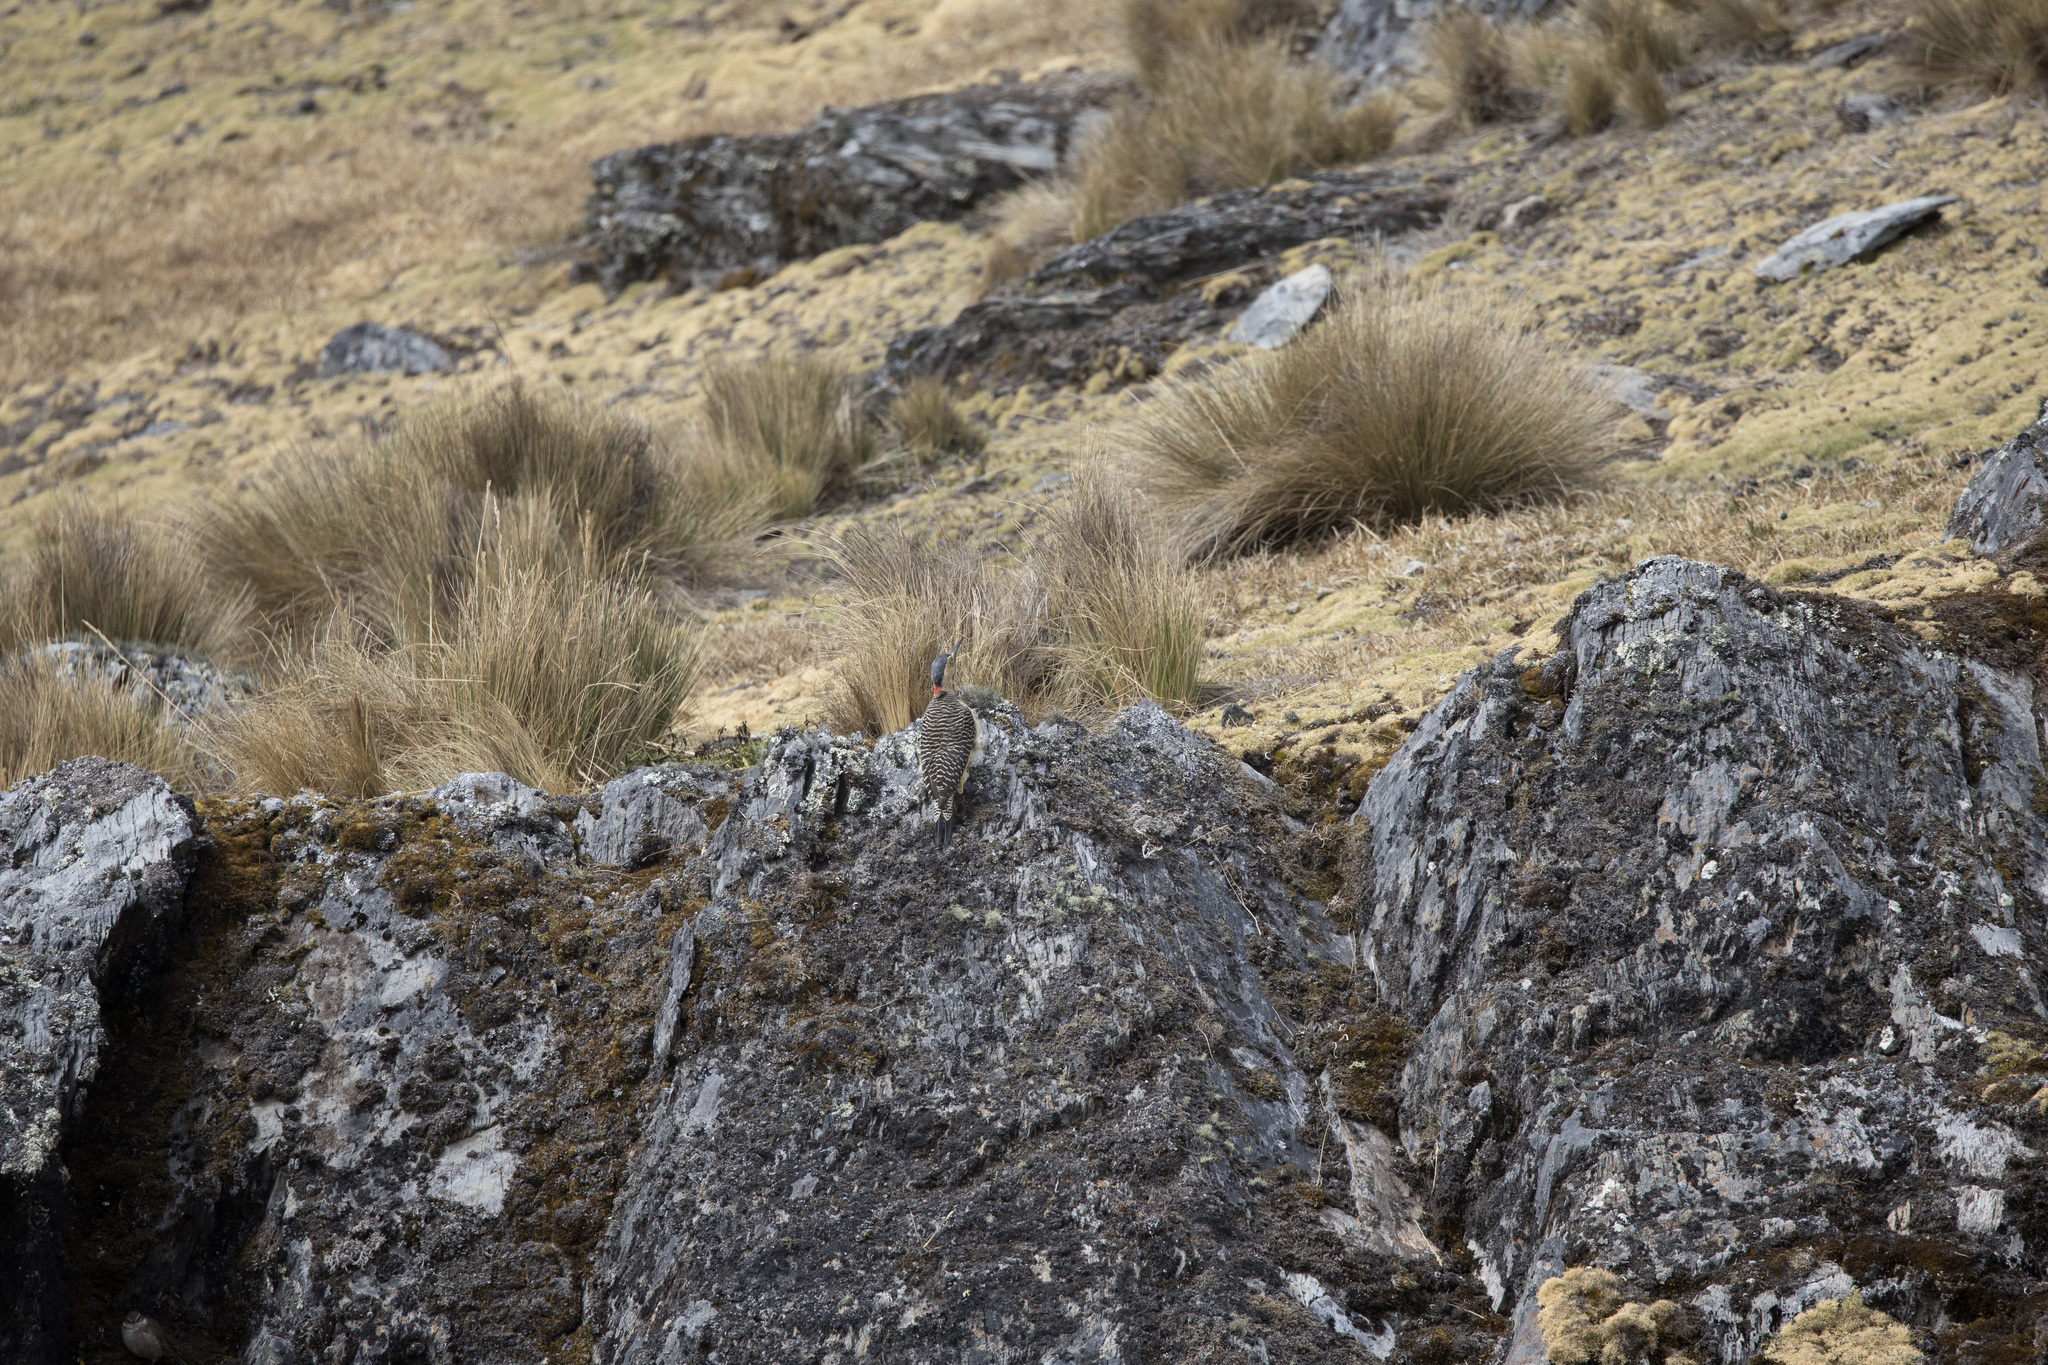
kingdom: Animalia
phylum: Chordata
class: Aves
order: Piciformes
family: Picidae
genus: Colaptes
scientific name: Colaptes rupicola
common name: Andean flicker
